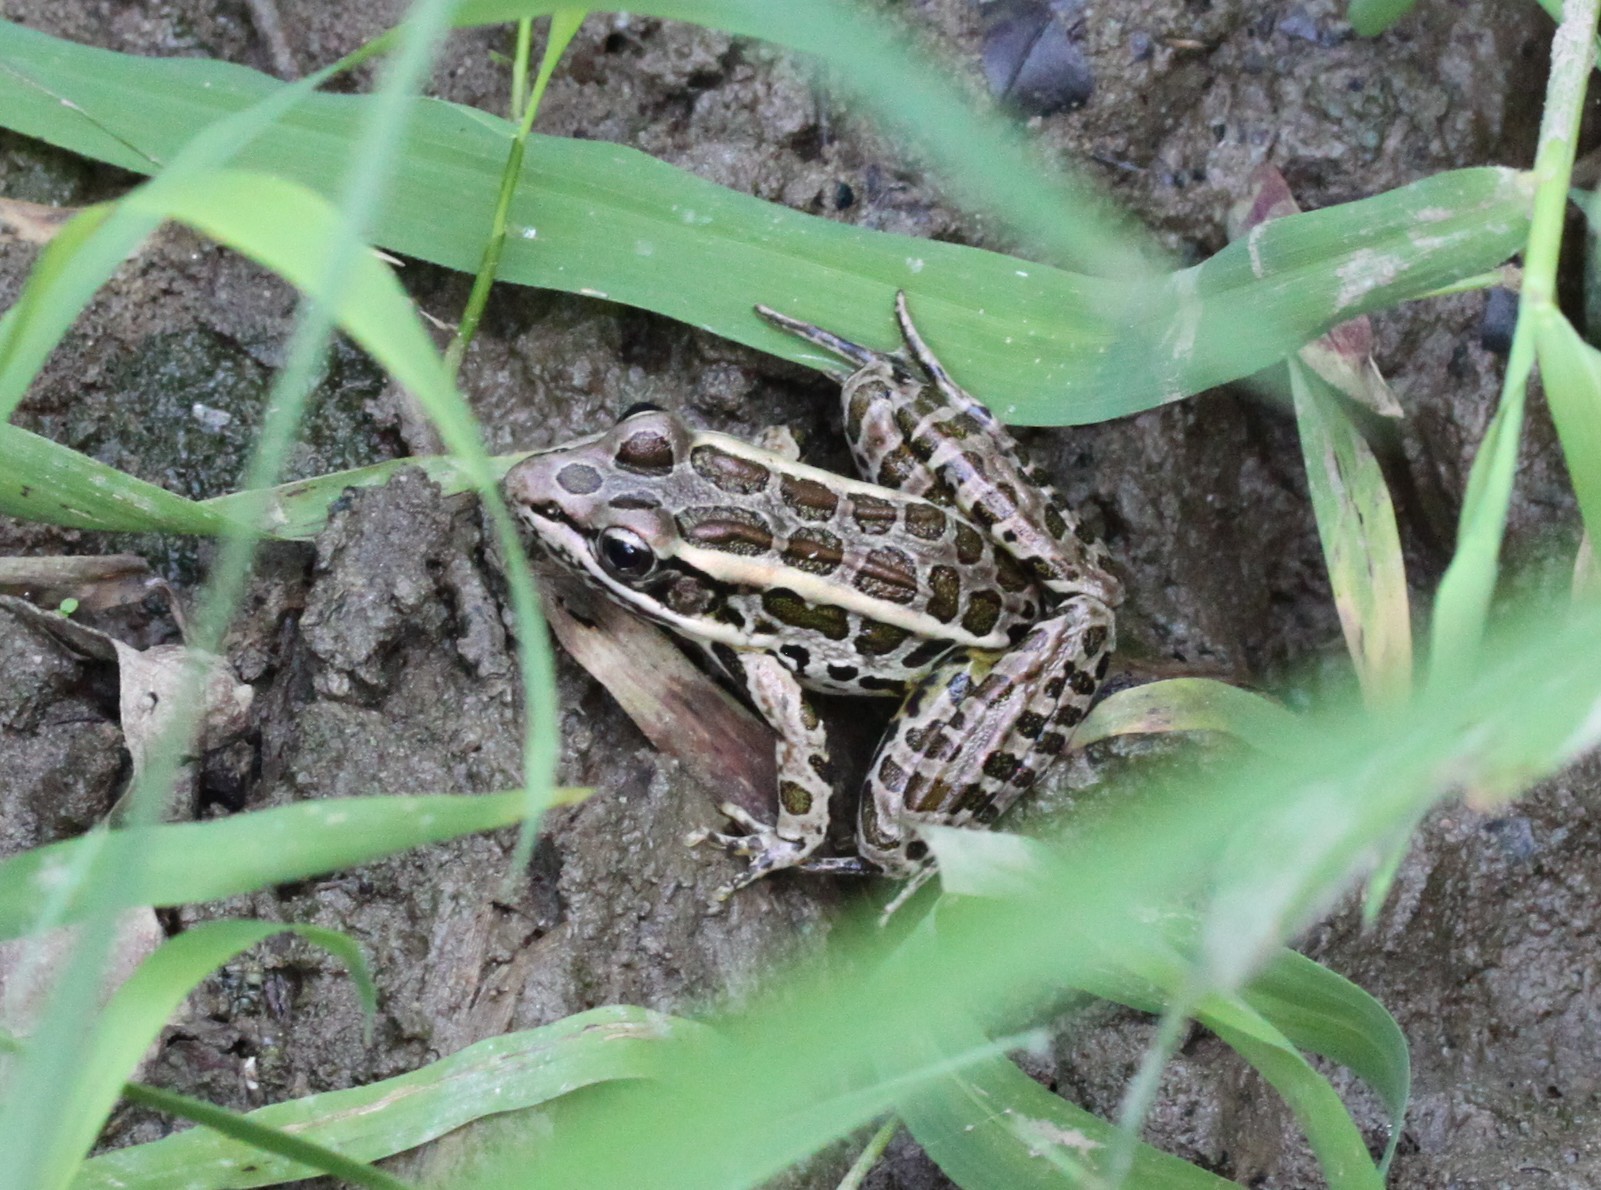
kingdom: Animalia
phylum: Chordata
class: Amphibia
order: Anura
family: Ranidae
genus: Lithobates
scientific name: Lithobates palustris
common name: Pickerel frog
